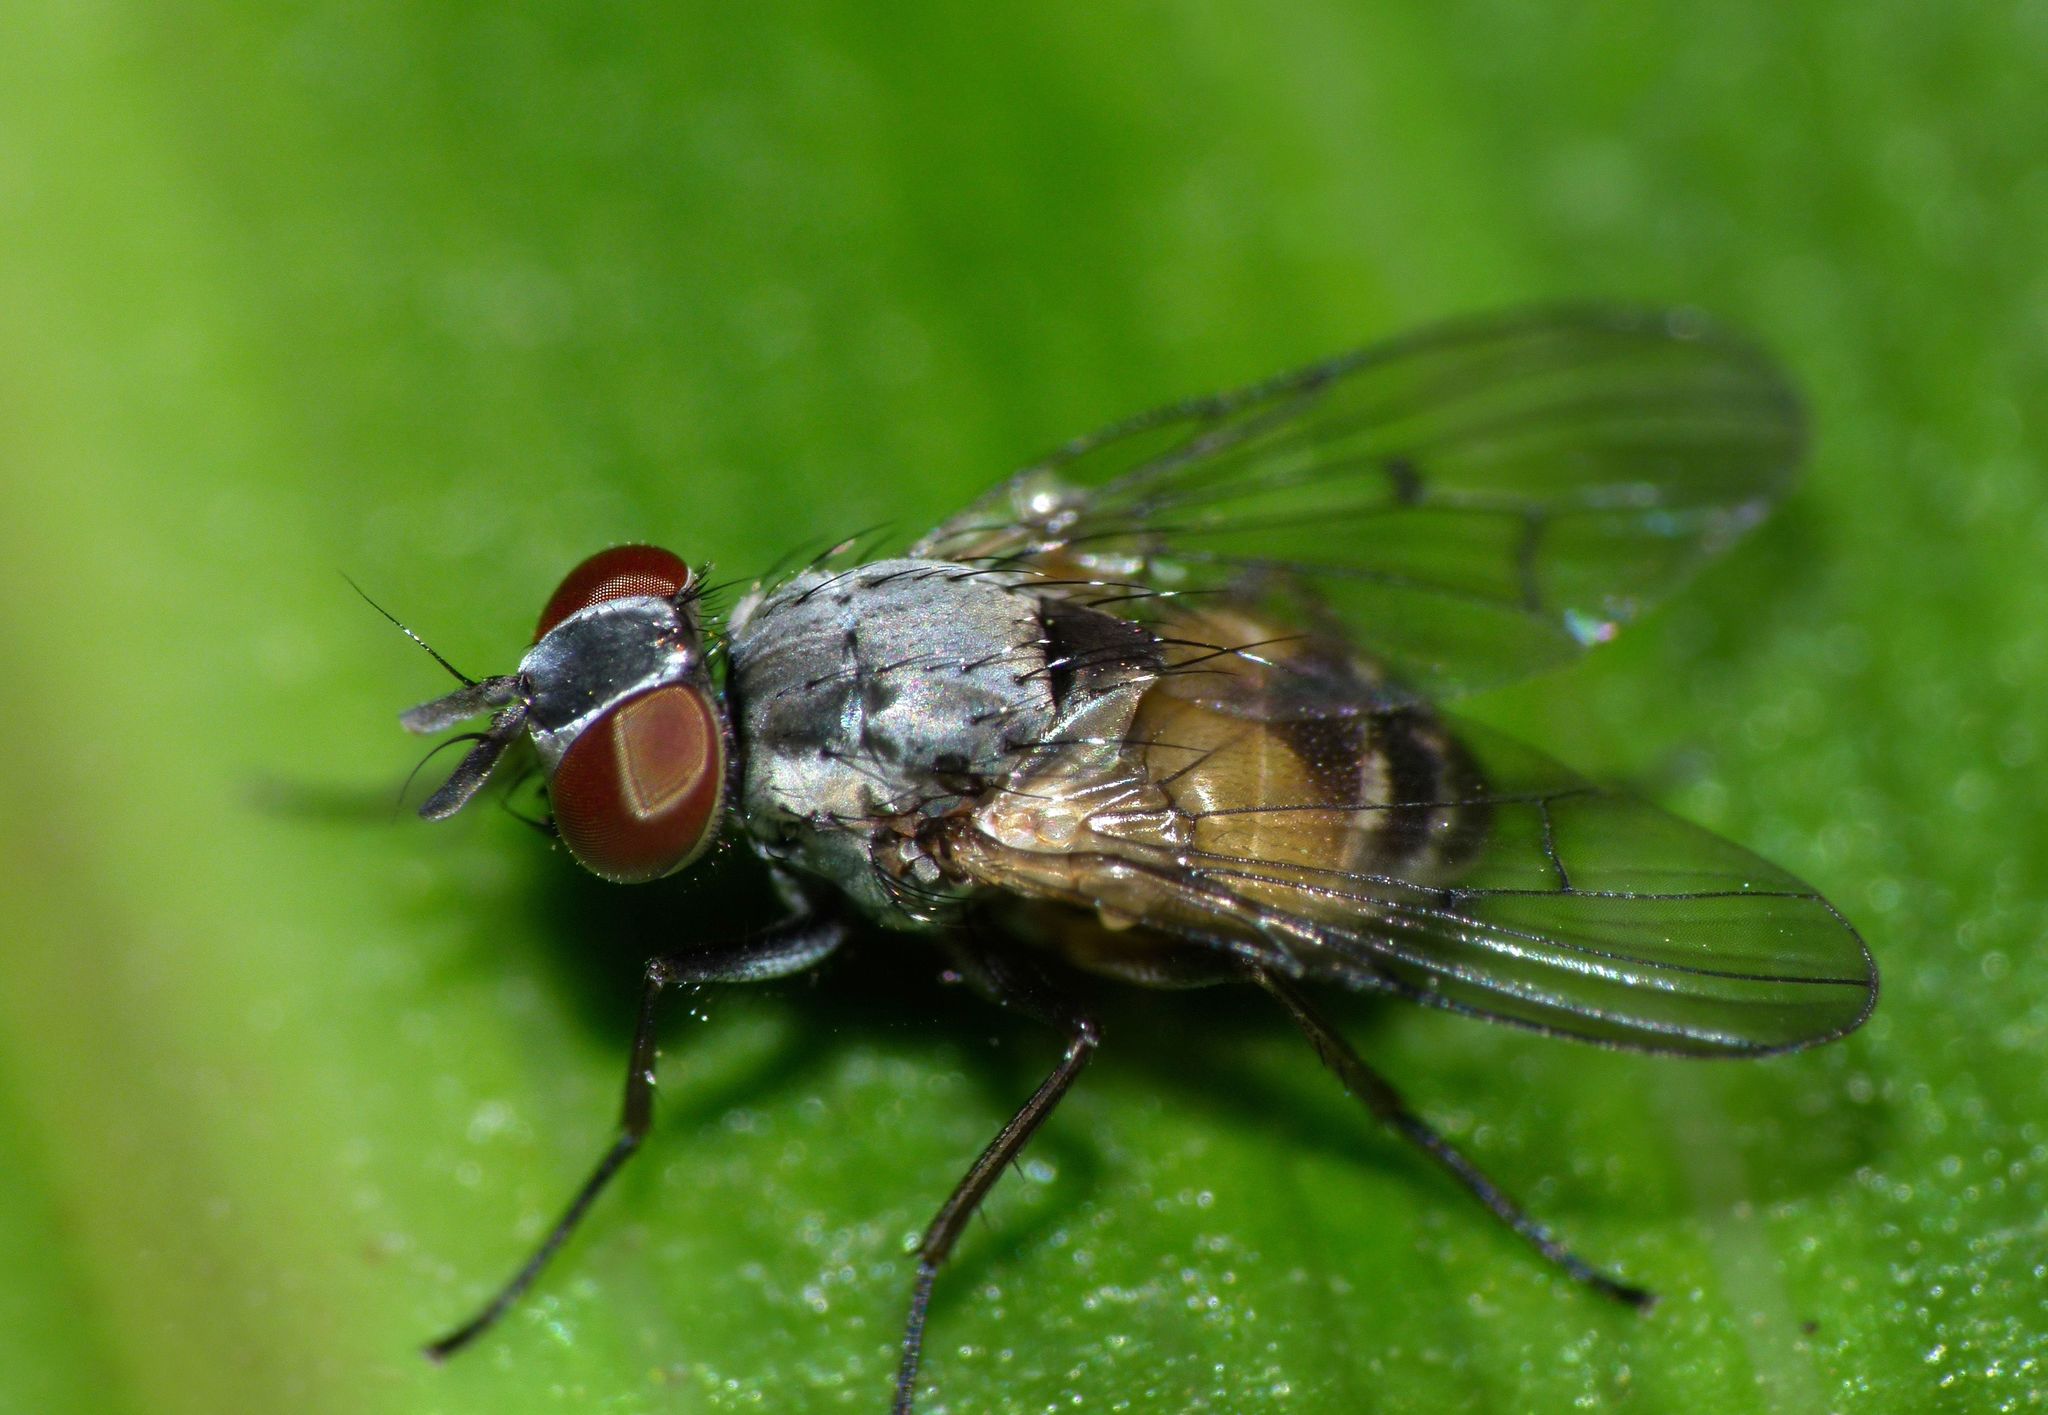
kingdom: Animalia
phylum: Arthropoda
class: Insecta
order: Diptera
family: Muscidae
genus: Spilogona
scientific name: Spilogona flaviventris
